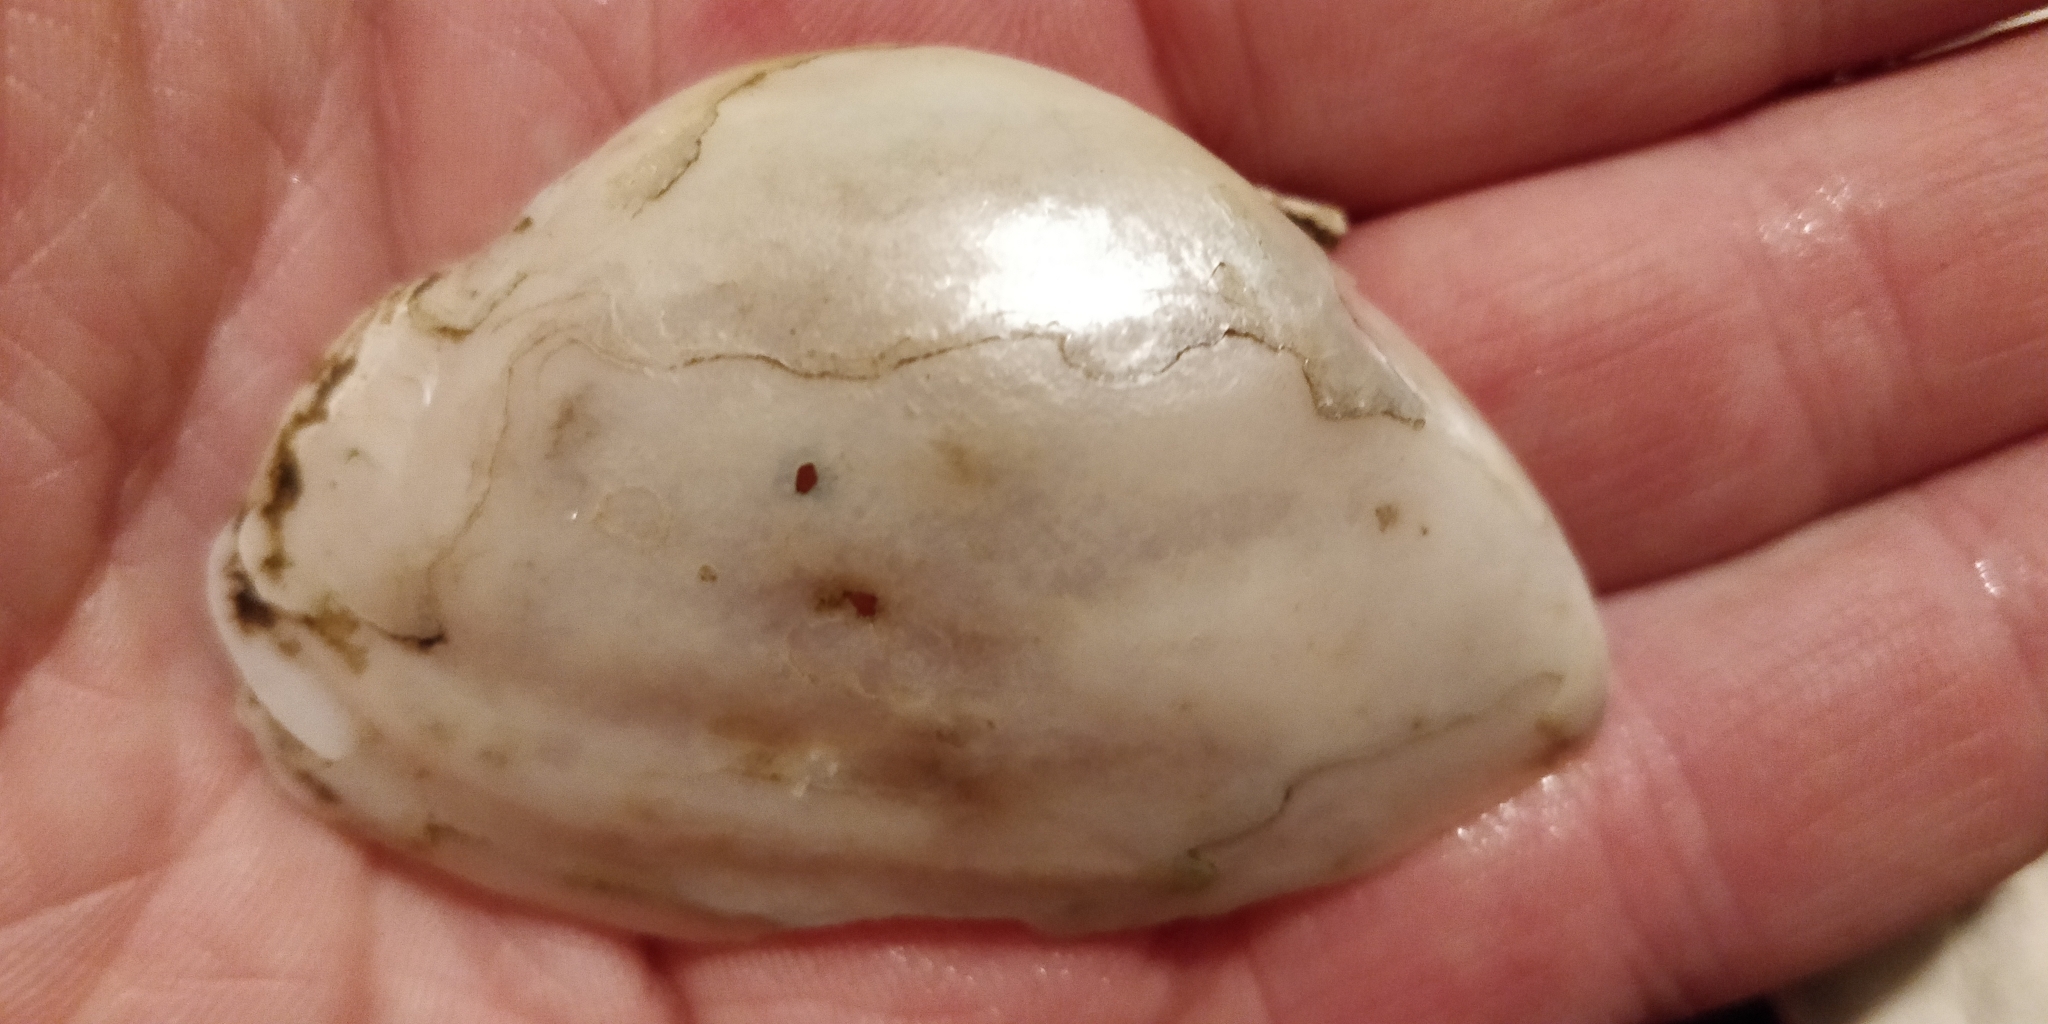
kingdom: Animalia
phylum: Mollusca
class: Bivalvia
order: Unionida
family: Unionidae
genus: Alasmidonta
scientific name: Alasmidonta marginata
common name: Elktoe
